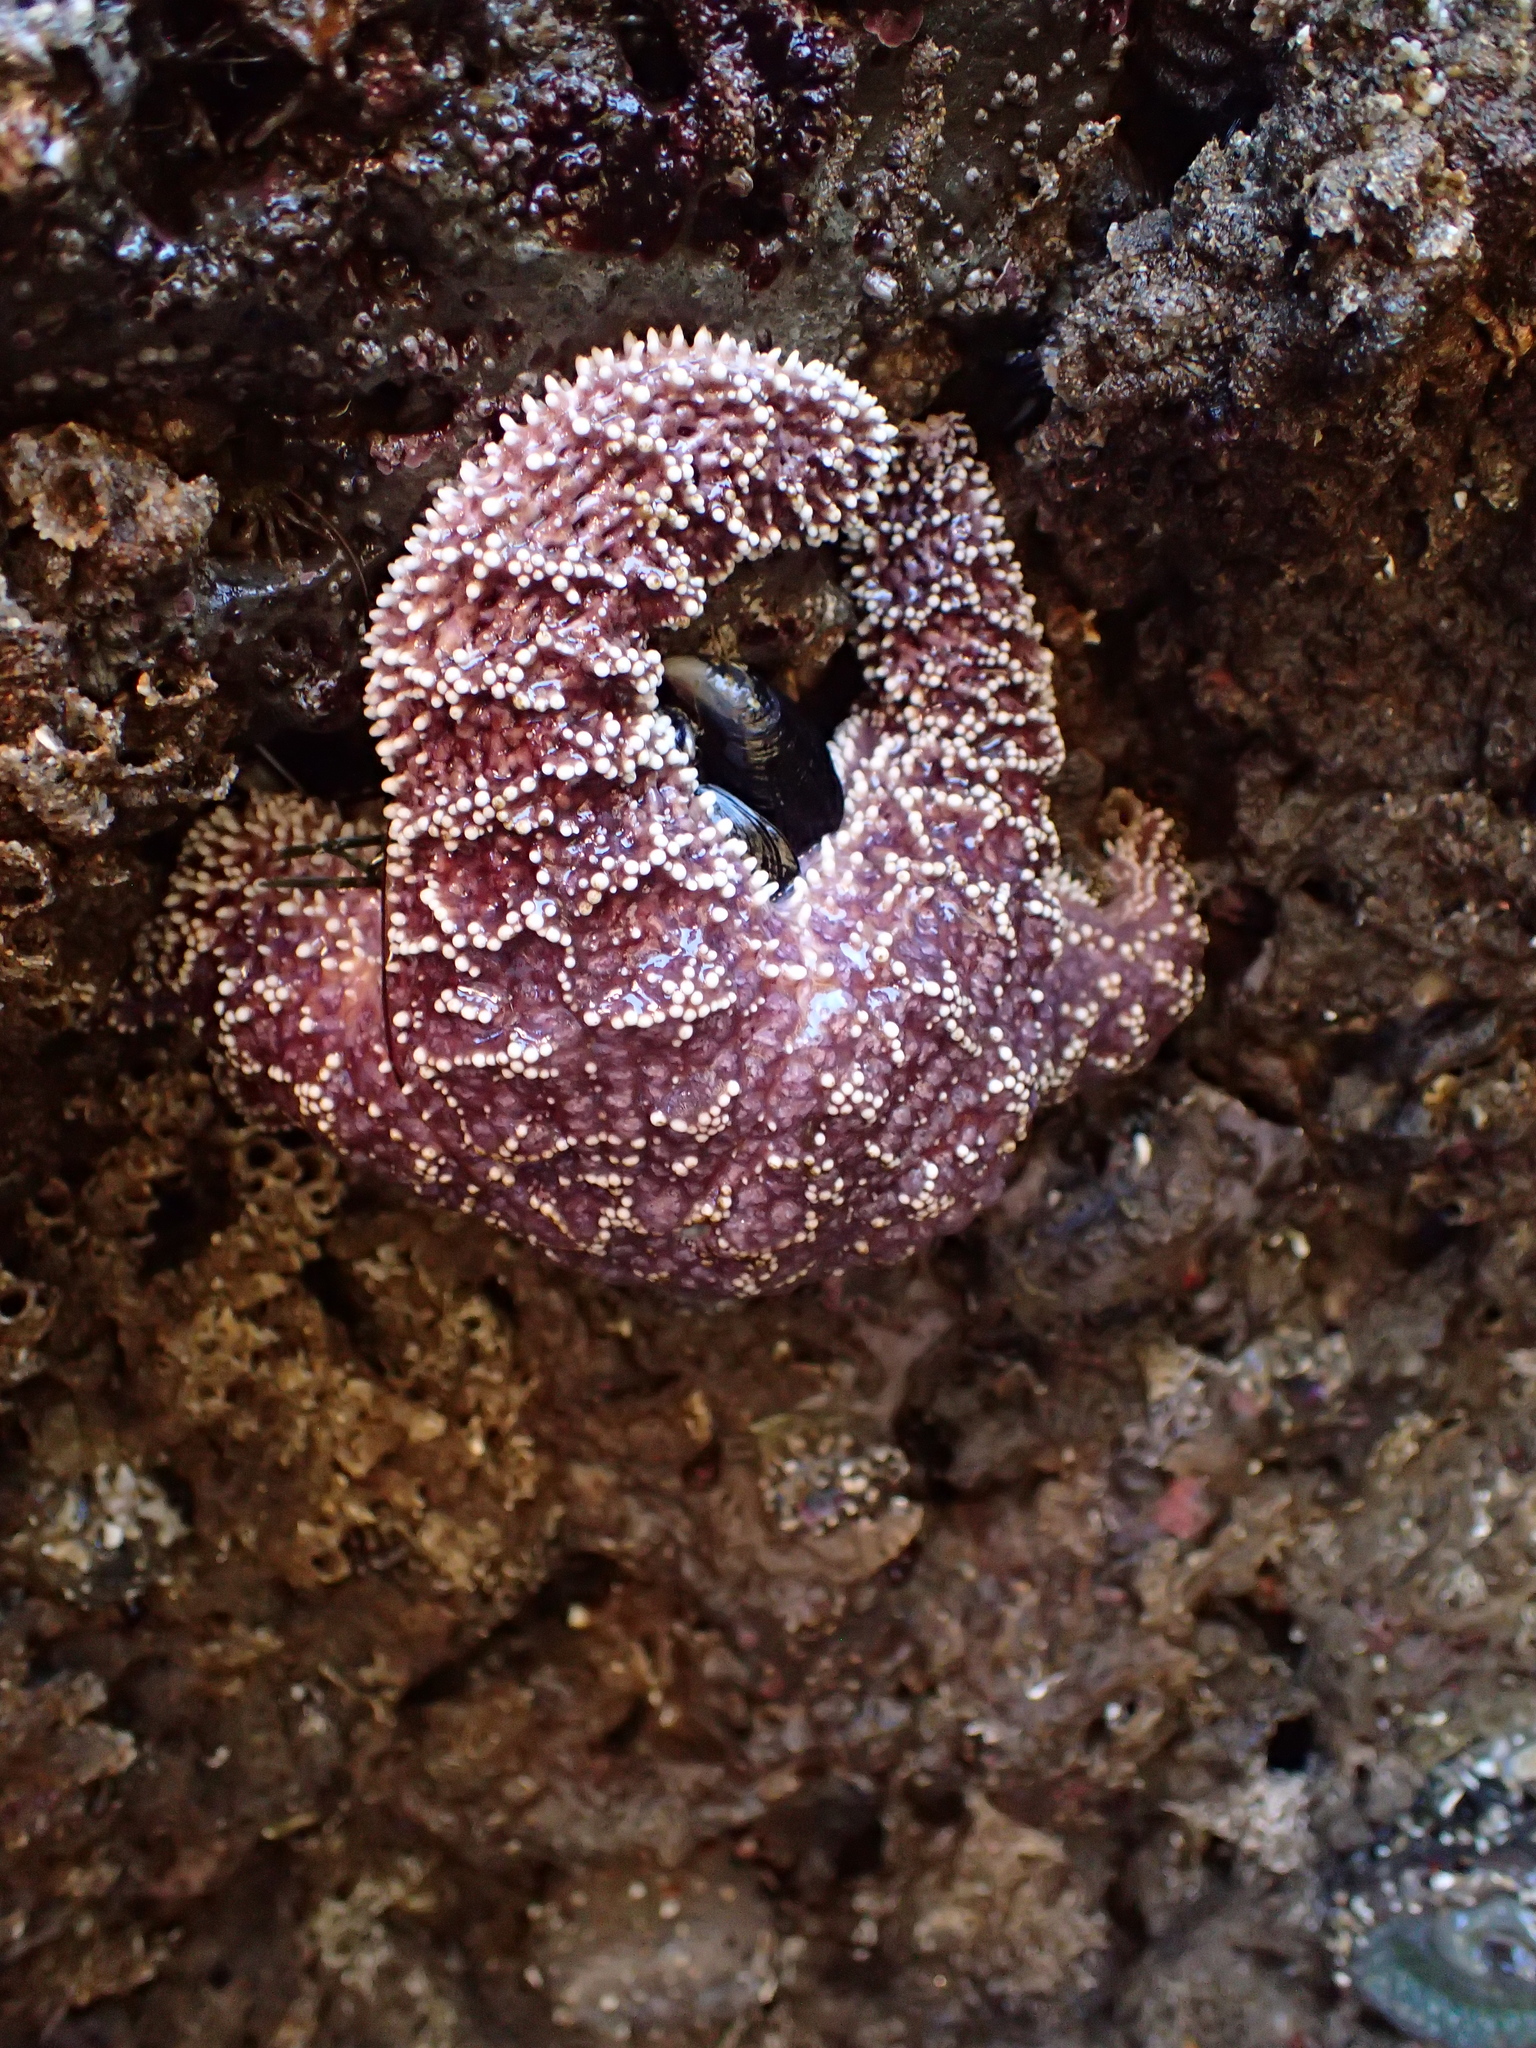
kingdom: Animalia
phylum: Echinodermata
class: Asteroidea
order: Forcipulatida
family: Asteriidae
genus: Pisaster
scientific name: Pisaster ochraceus
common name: Ochre stars
